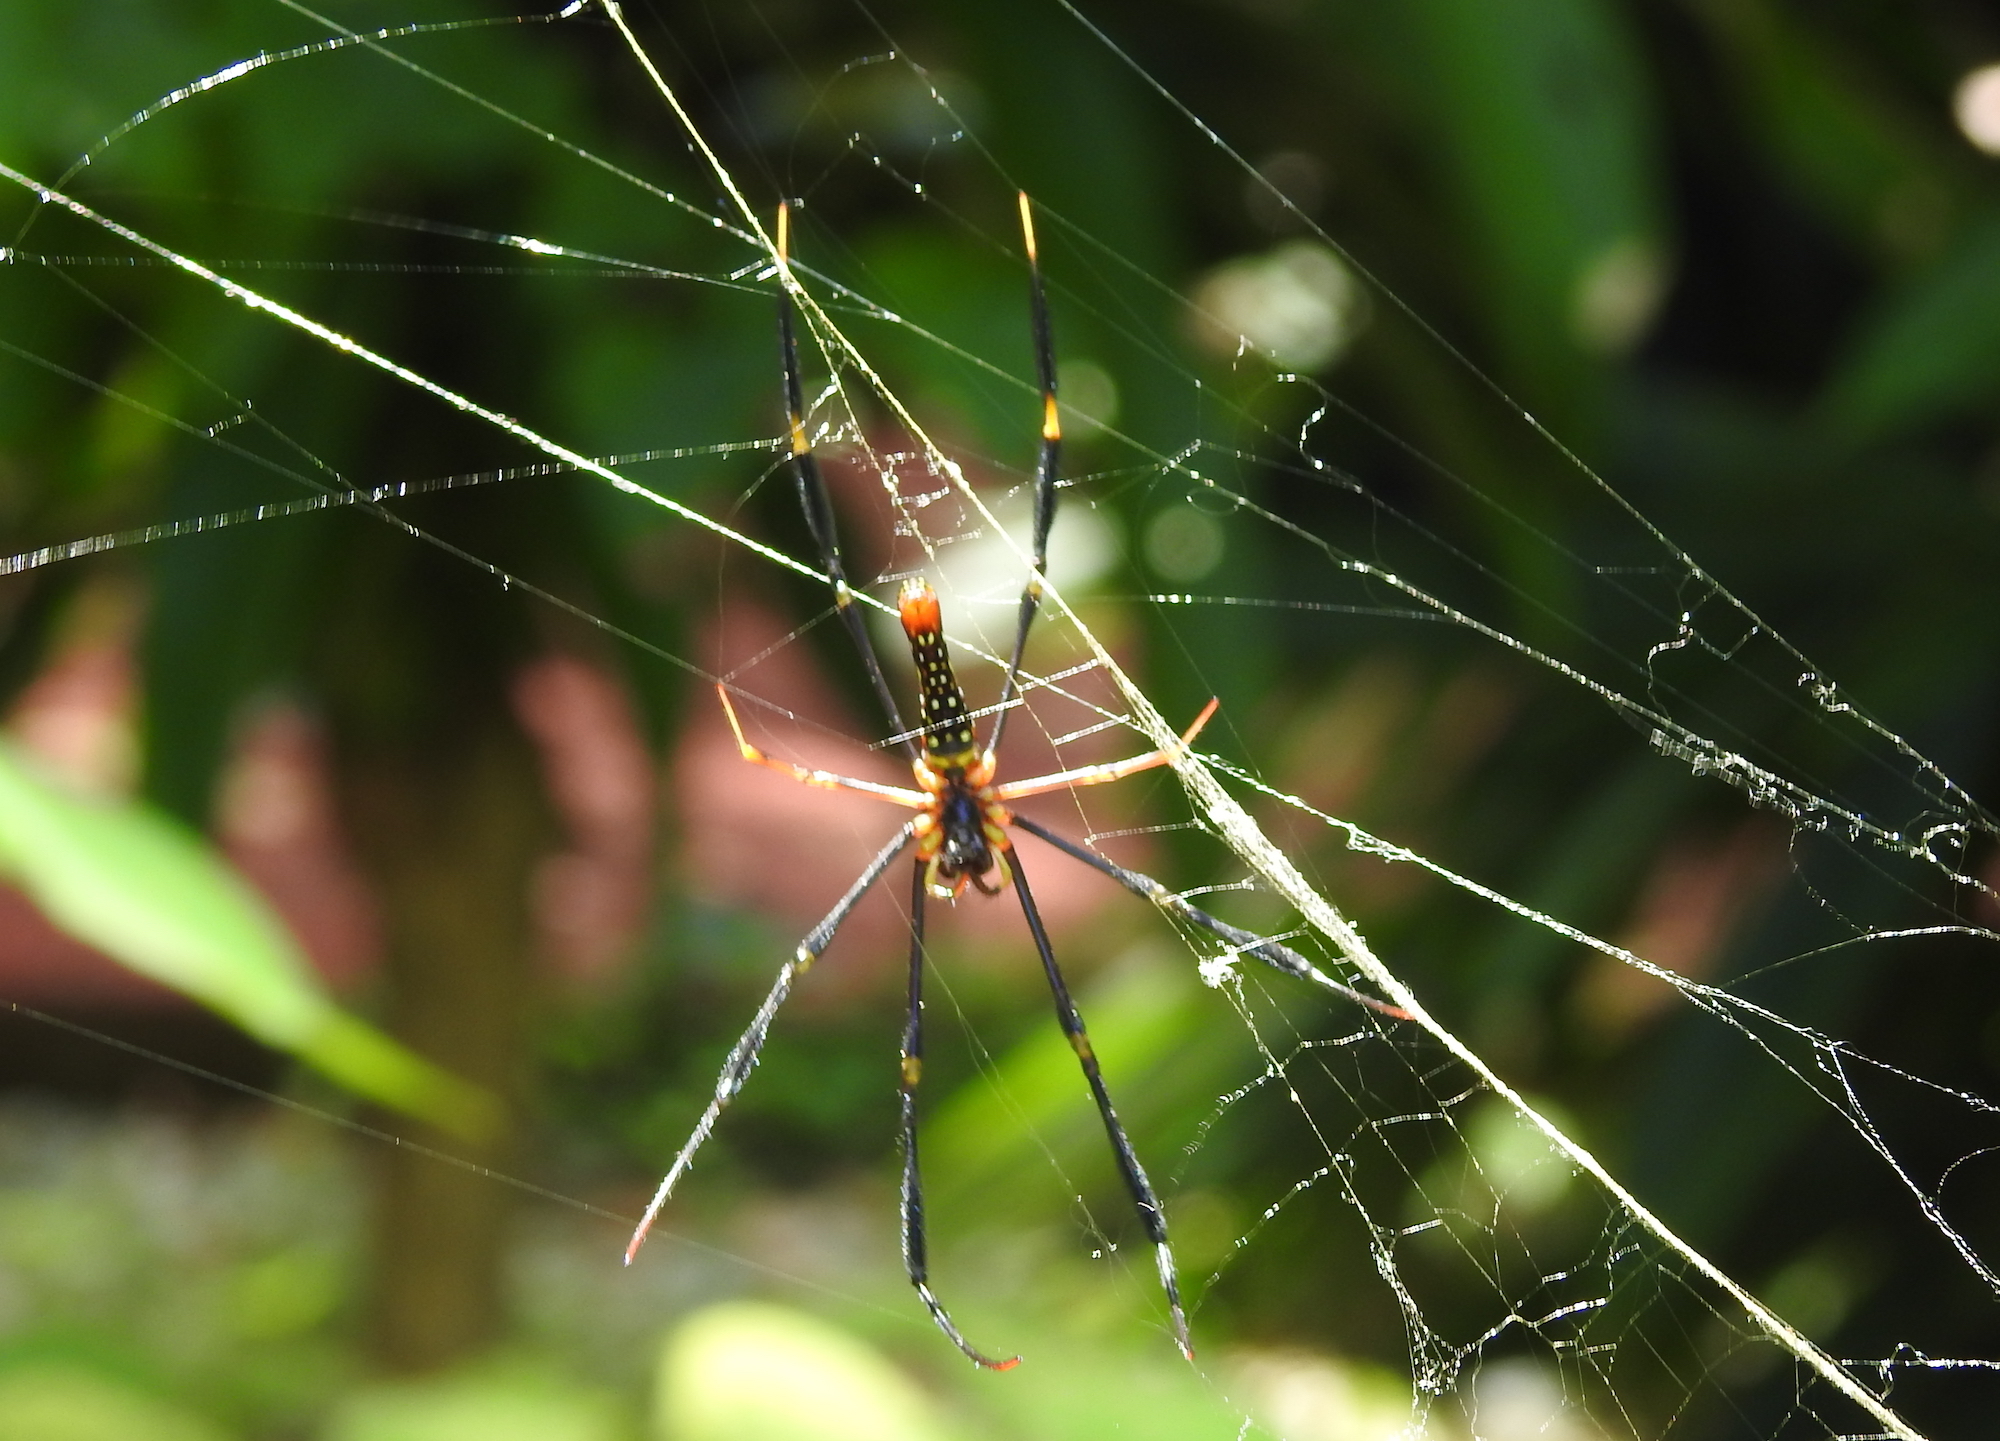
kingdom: Animalia
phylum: Arthropoda
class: Arachnida
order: Araneae
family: Araneidae
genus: Nephila
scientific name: Nephila pilipes
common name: Giant golden orb weaver
